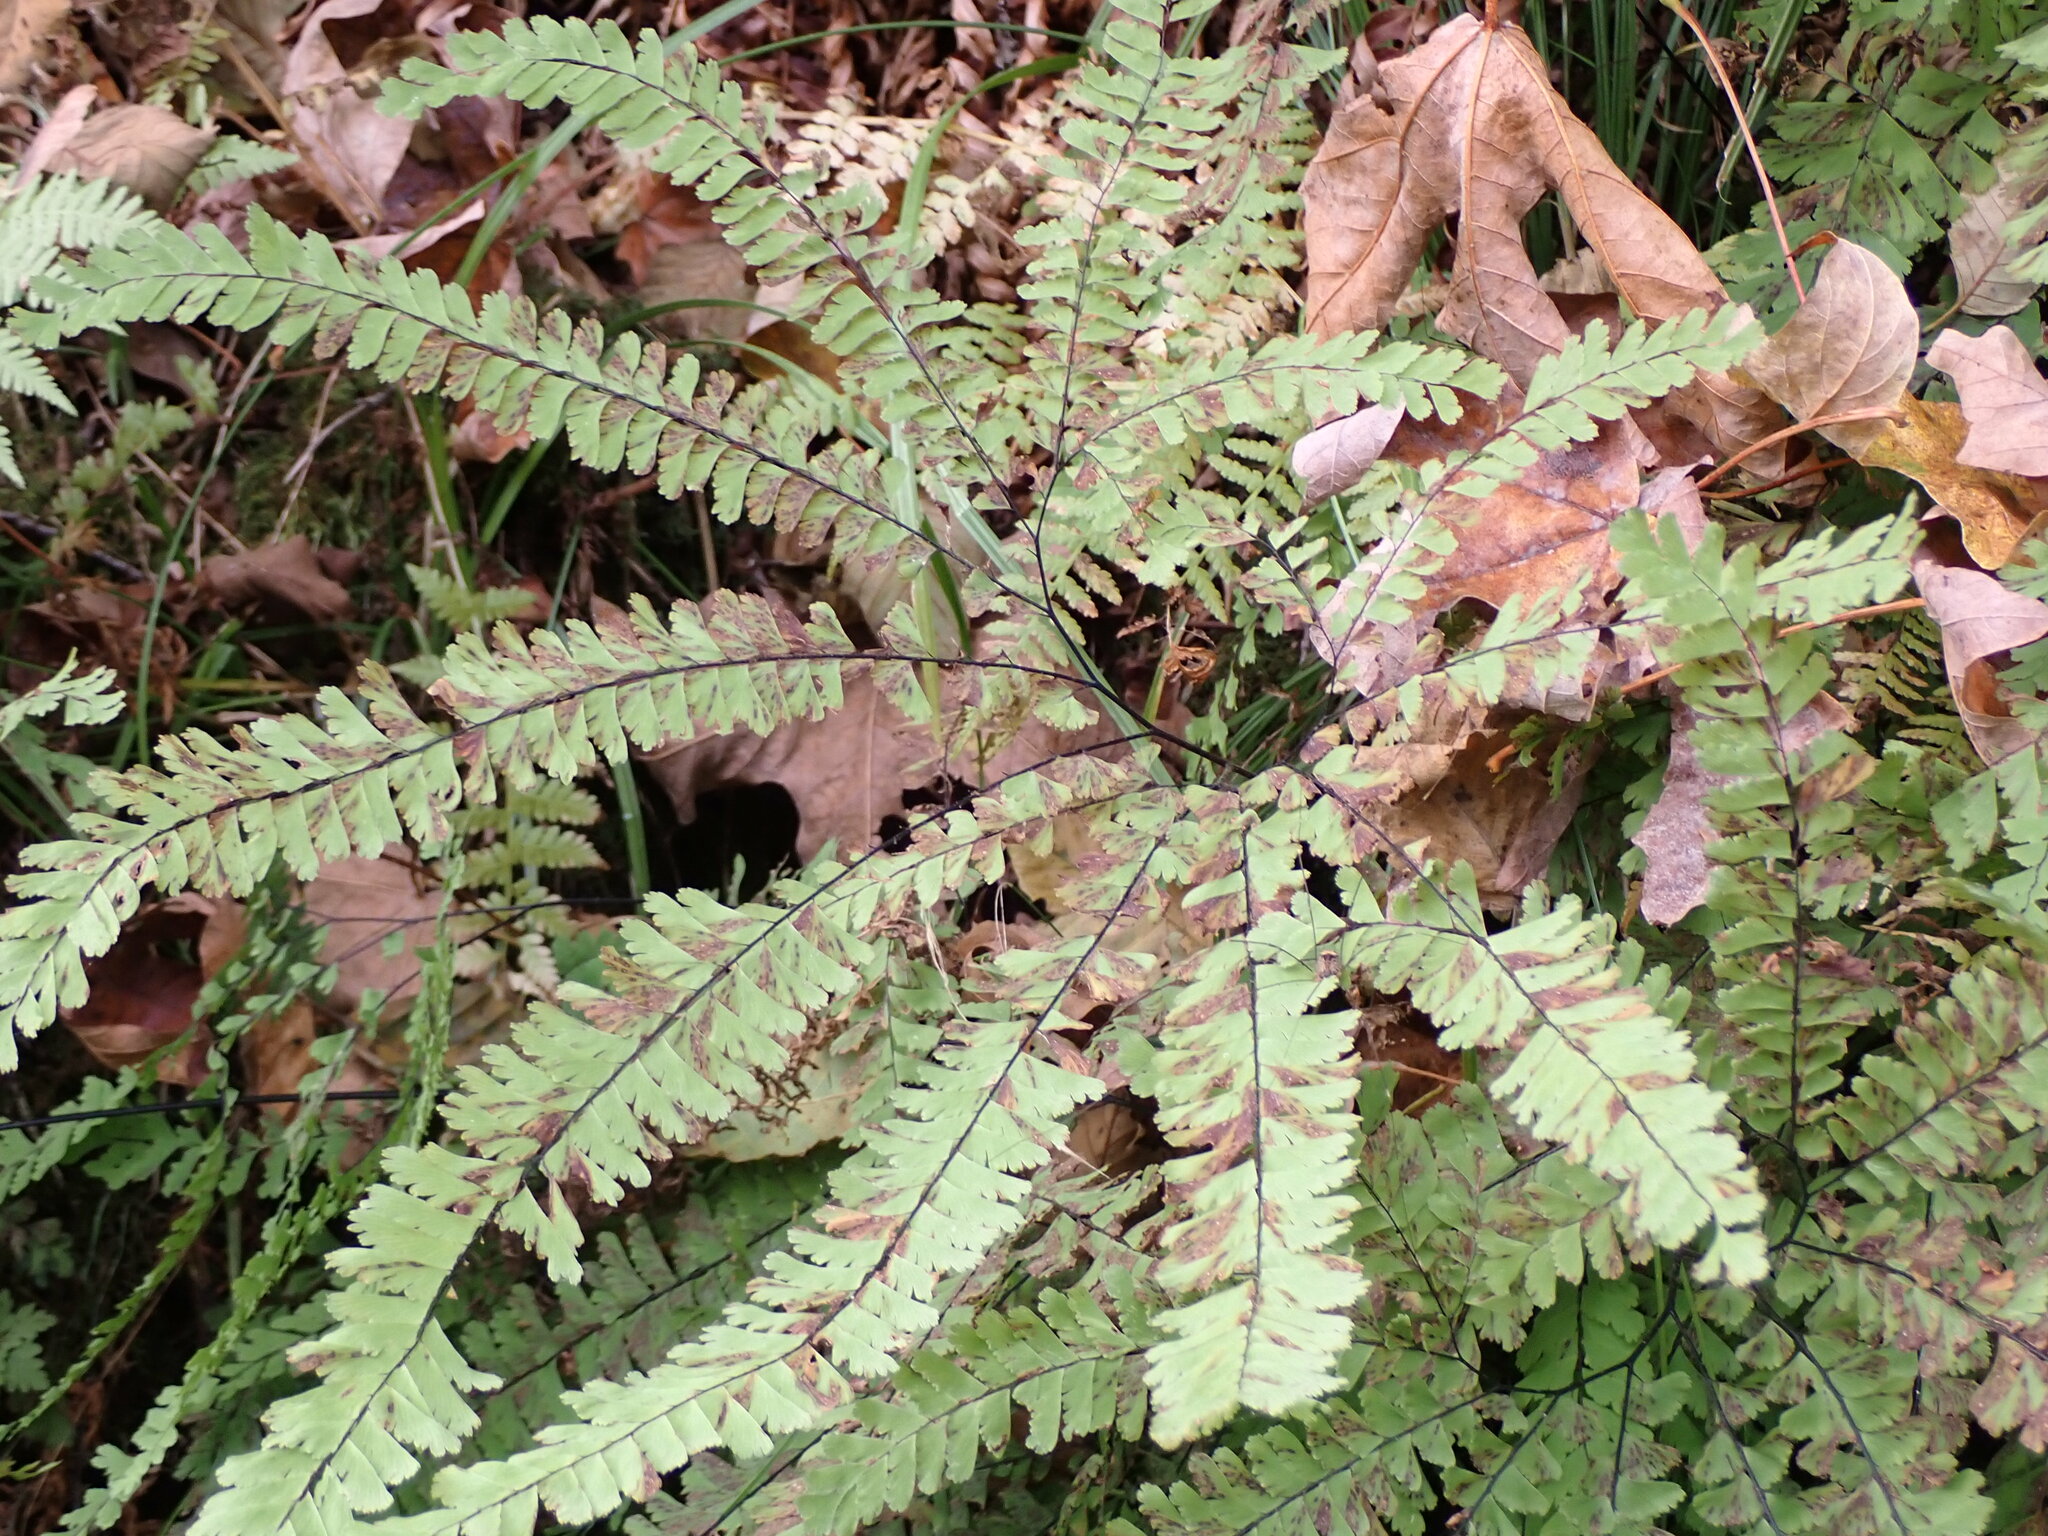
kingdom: Plantae
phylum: Tracheophyta
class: Polypodiopsida
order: Polypodiales
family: Pteridaceae
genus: Adiantum
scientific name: Adiantum aleuticum
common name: Aleutian maidenhair fern
